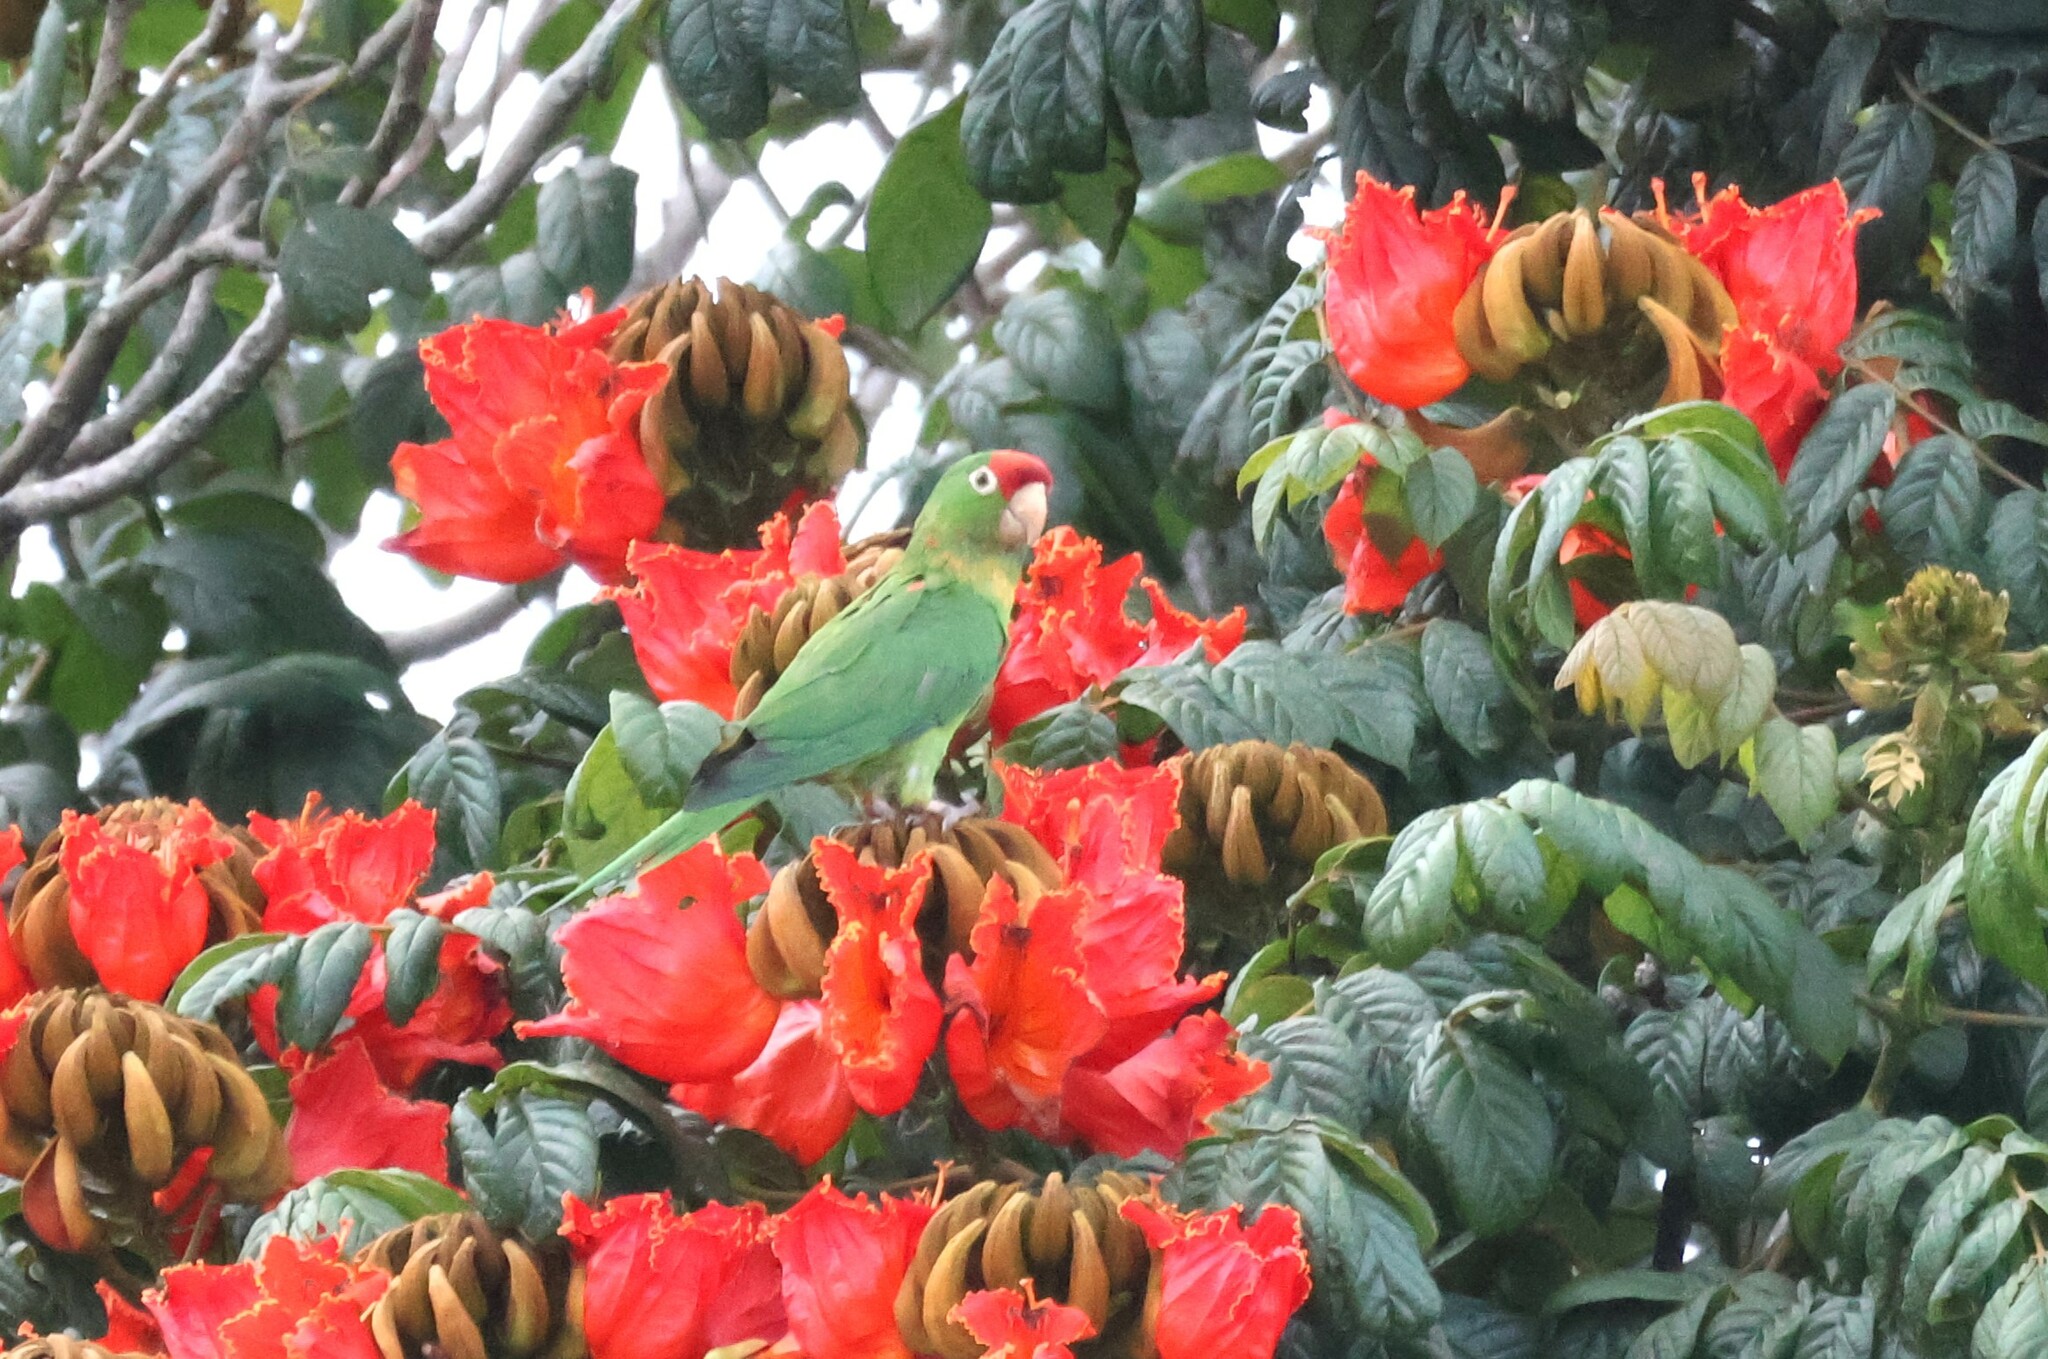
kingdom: Animalia
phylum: Chordata
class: Aves
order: Psittaciformes
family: Psittacidae
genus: Aratinga
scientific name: Aratinga finschi
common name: Crimson-fronted parakeet
